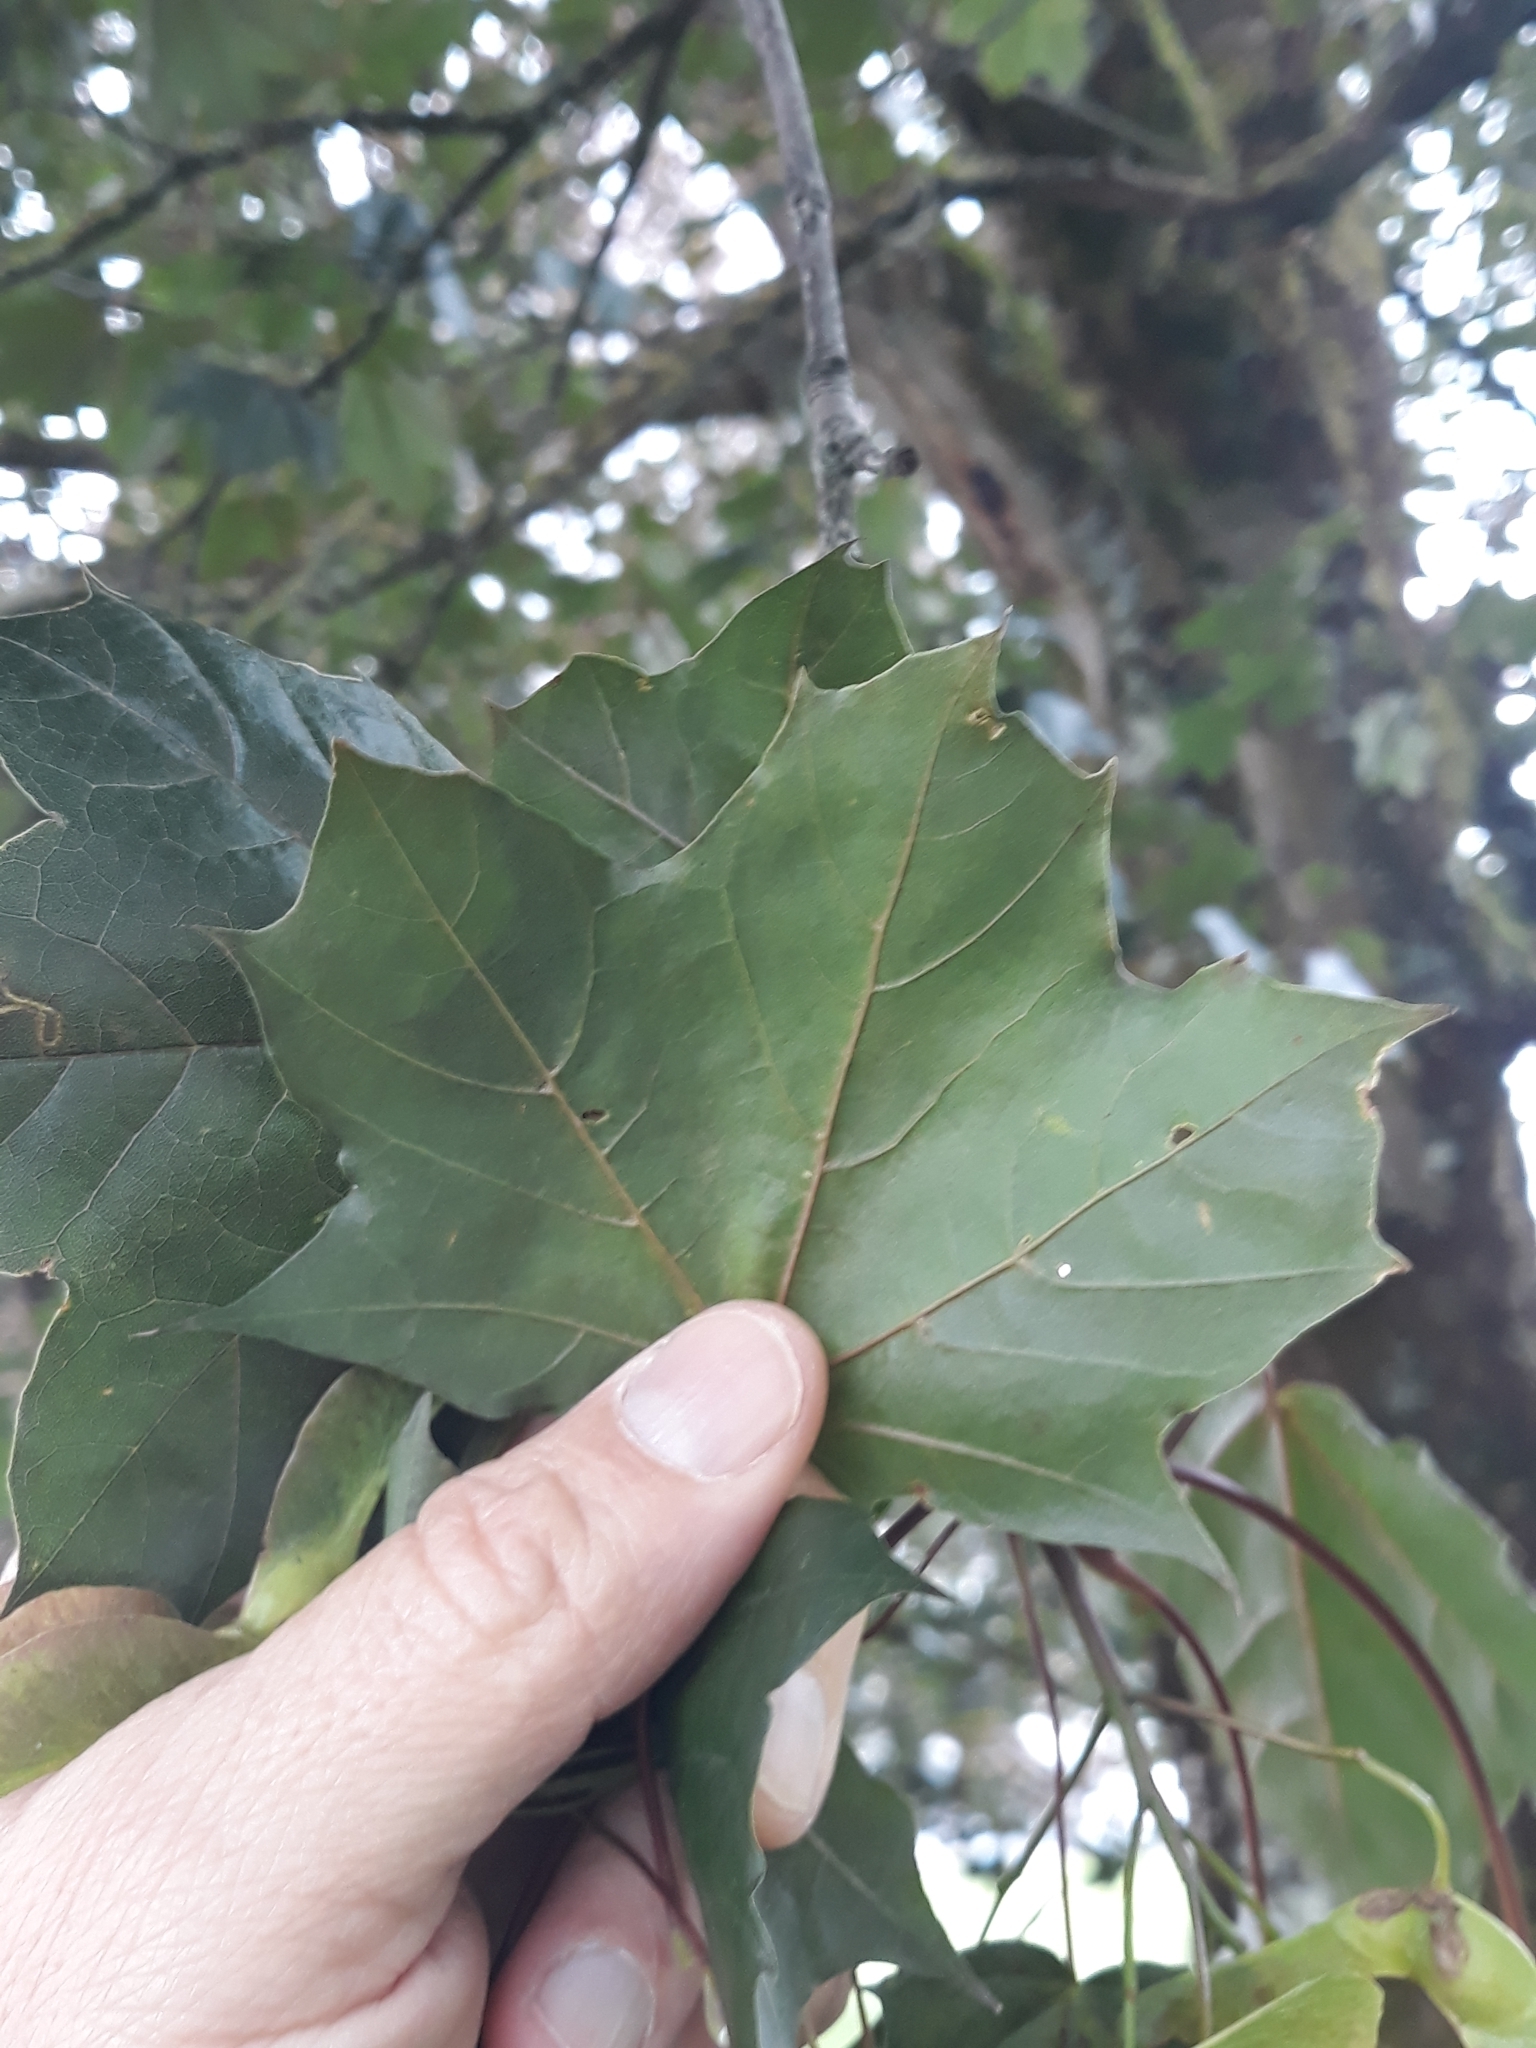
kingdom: Plantae
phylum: Tracheophyta
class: Magnoliopsida
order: Sapindales
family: Sapindaceae
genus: Acer
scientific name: Acer platanoides
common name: Norway maple
